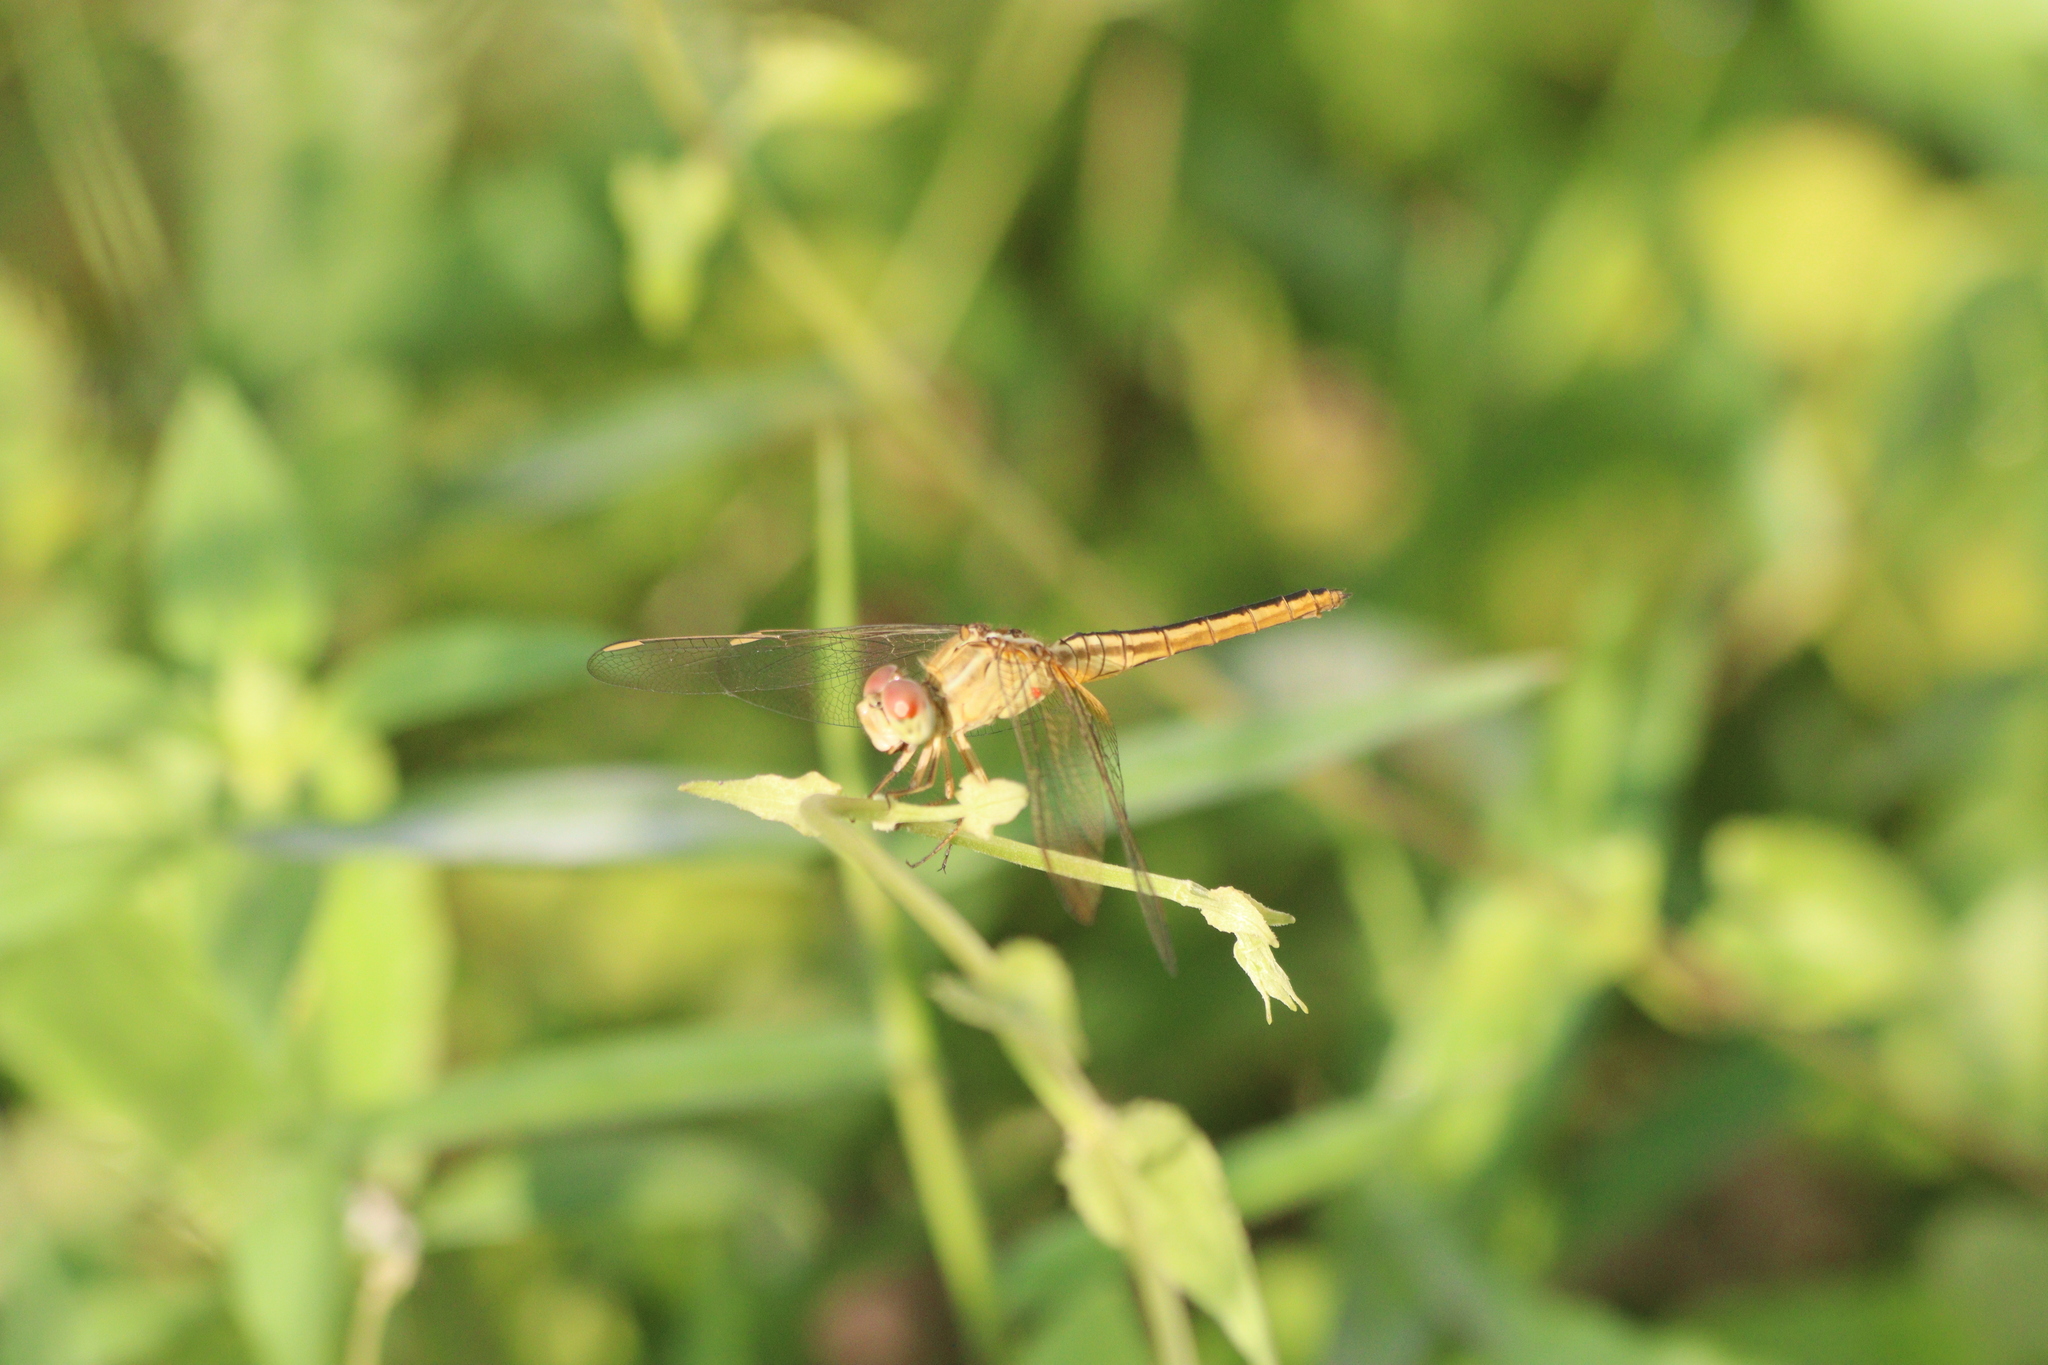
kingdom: Animalia
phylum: Arthropoda
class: Insecta
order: Odonata
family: Libellulidae
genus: Crocothemis
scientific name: Crocothemis servilia
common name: Scarlet skimmer
